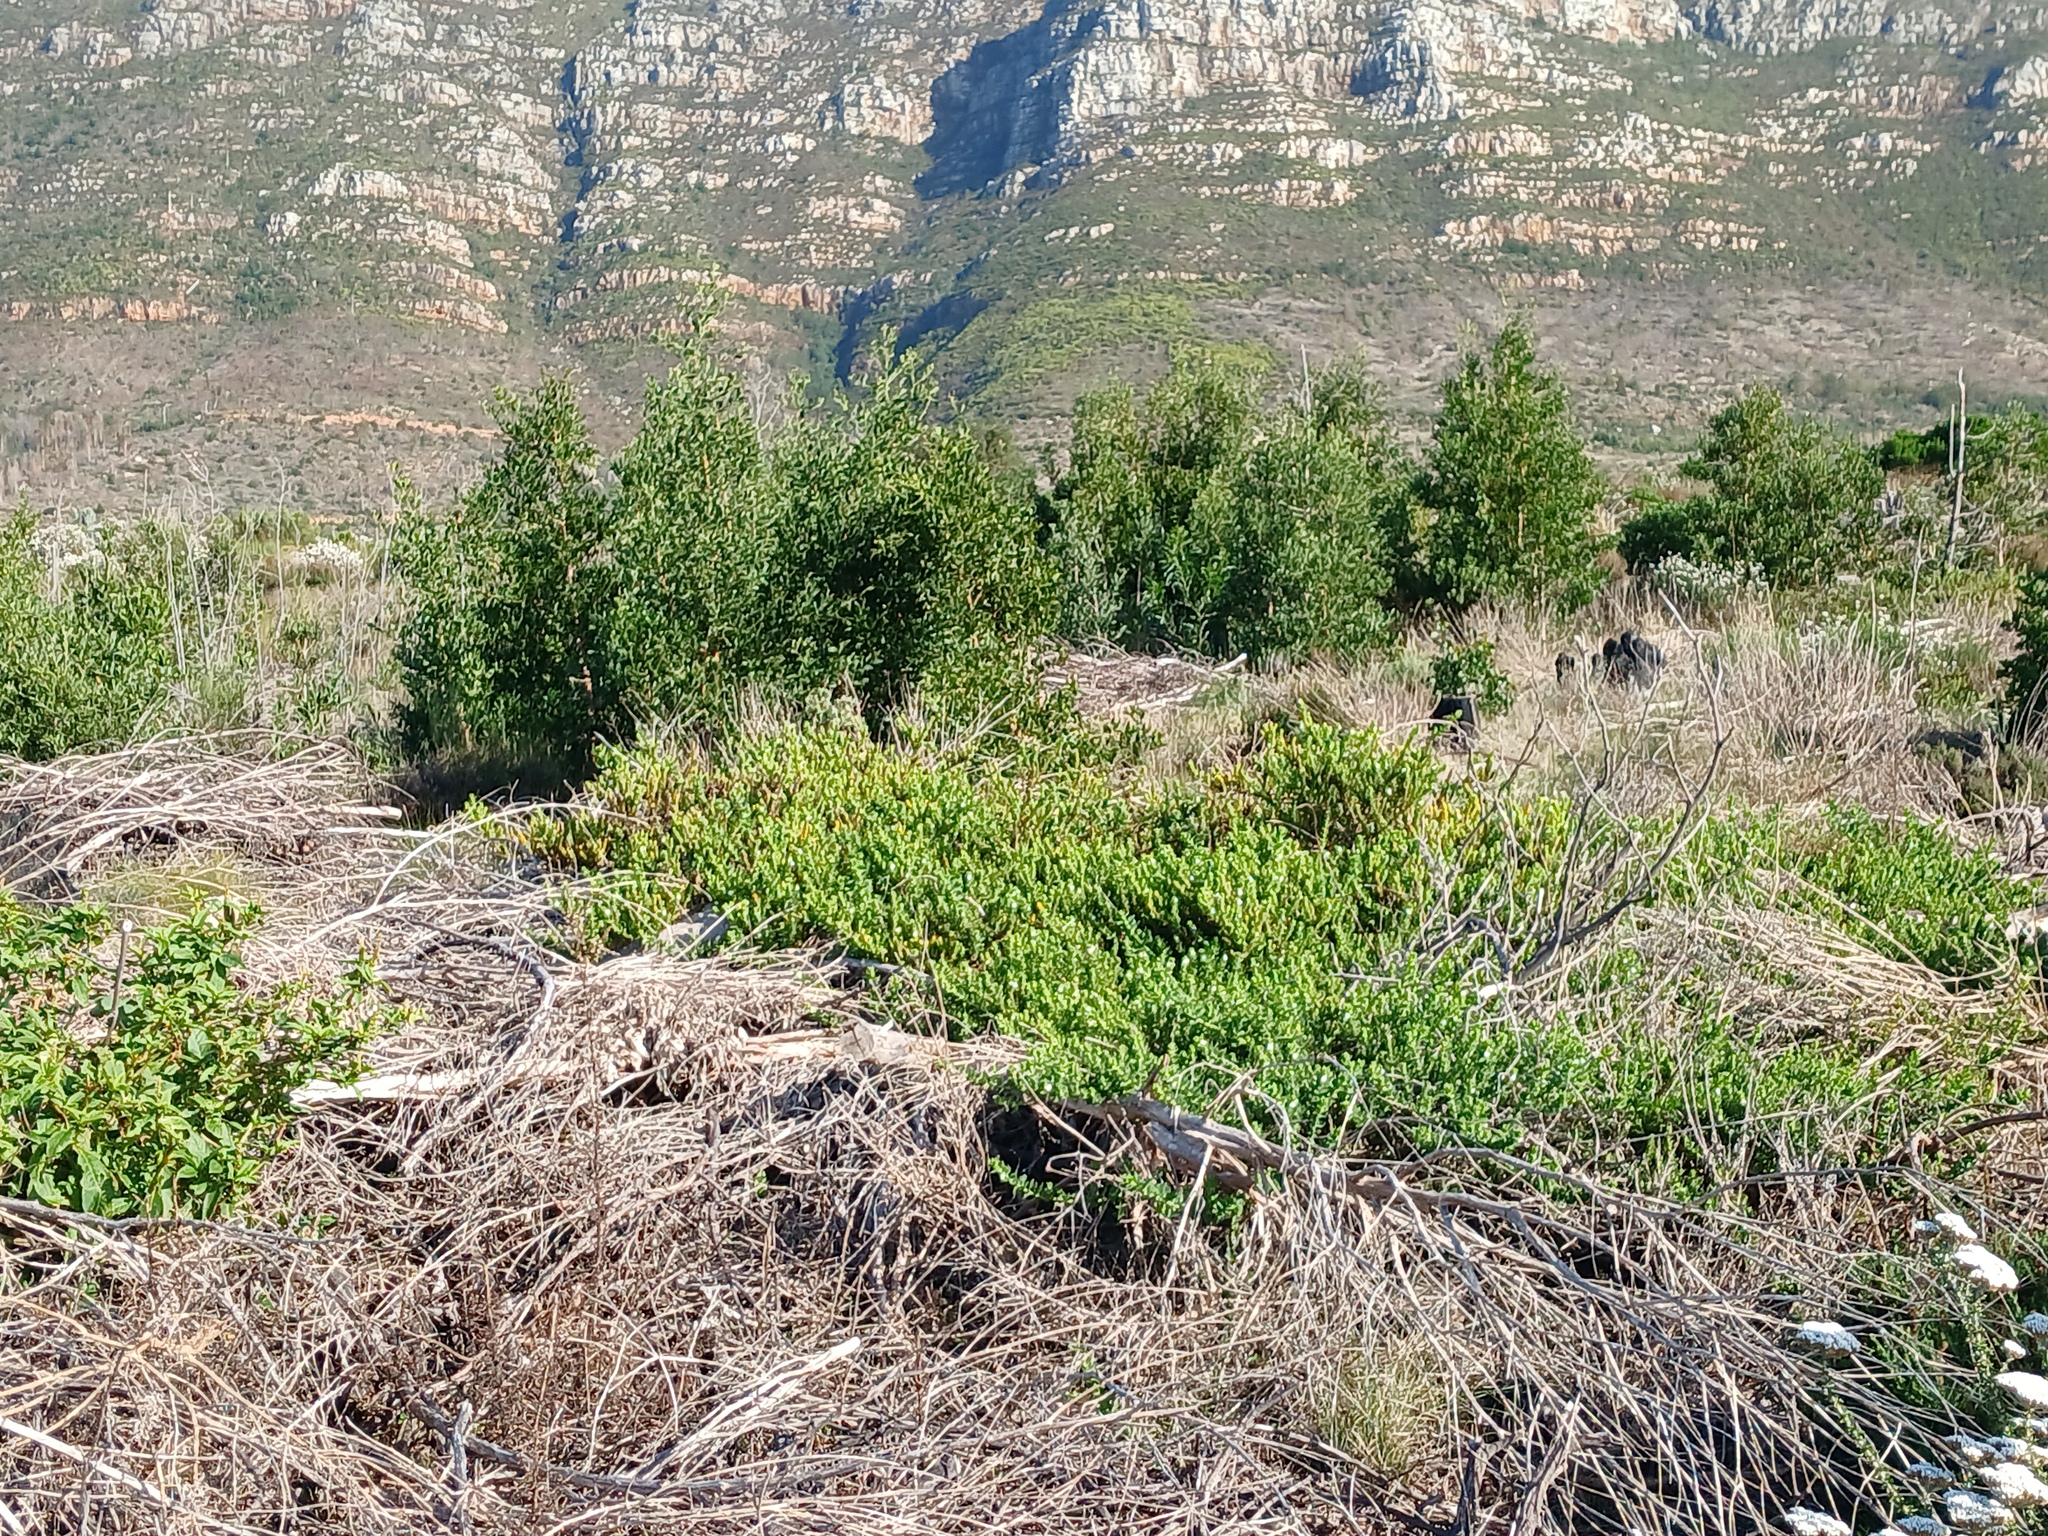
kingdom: Plantae
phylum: Tracheophyta
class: Magnoliopsida
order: Lamiales
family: Scrophulariaceae
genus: Oftia
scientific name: Oftia africana
